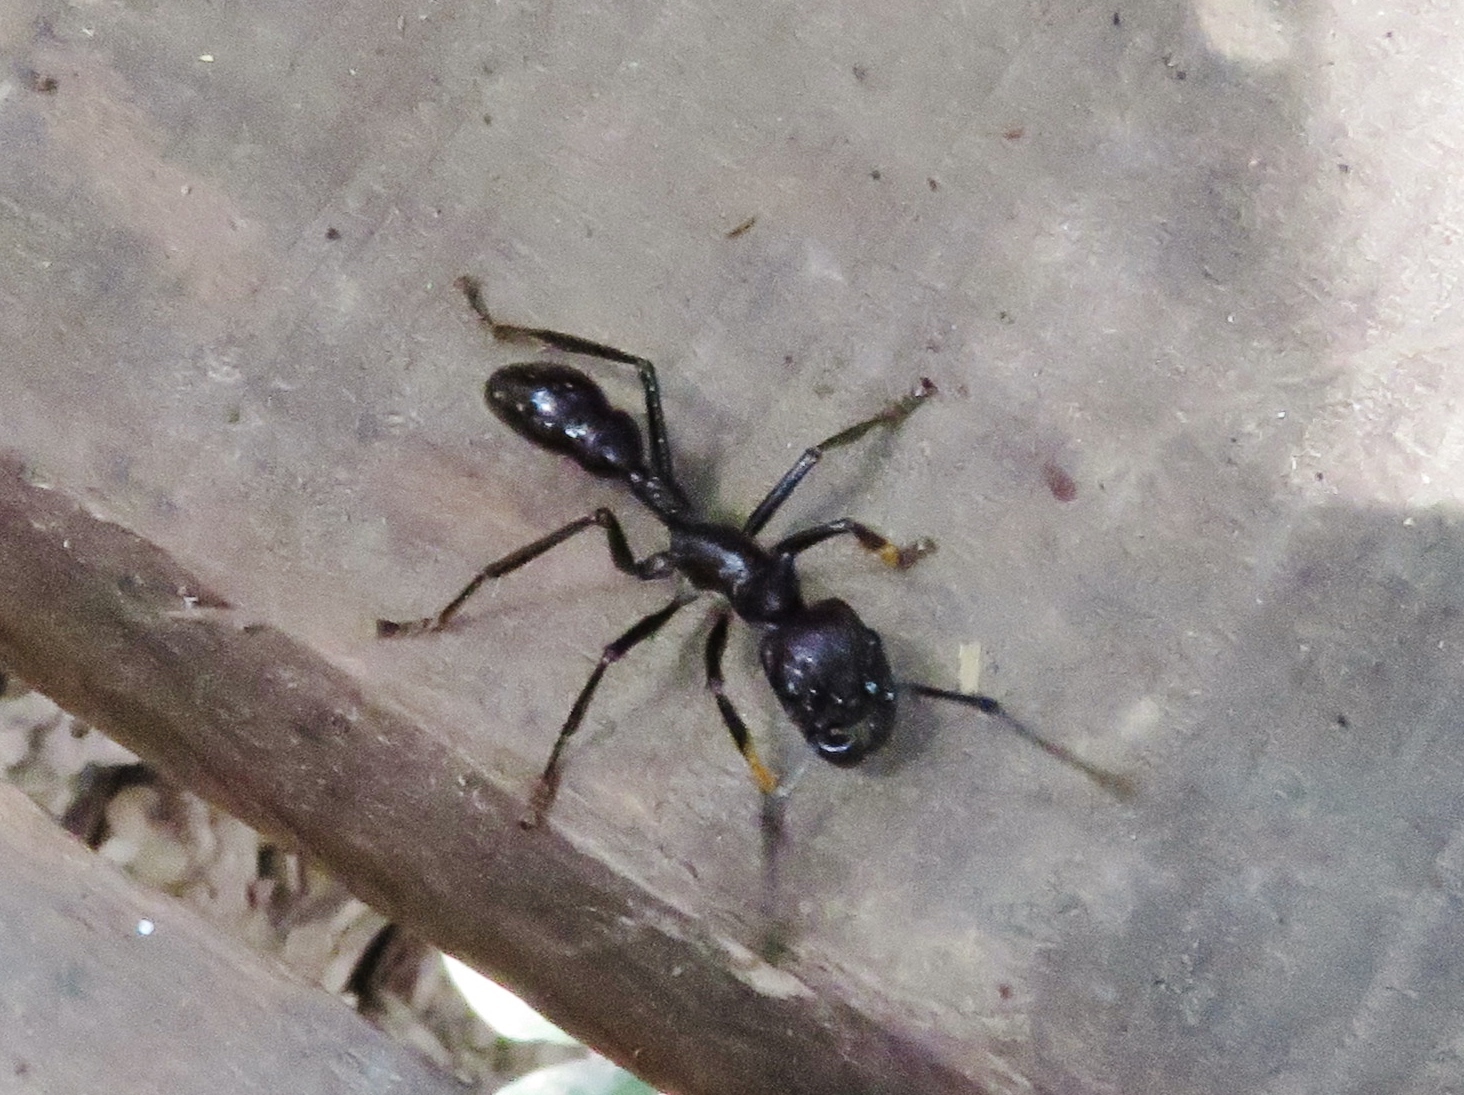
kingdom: Animalia
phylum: Arthropoda
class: Insecta
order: Hymenoptera
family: Formicidae
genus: Paraponera
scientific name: Paraponera clavata
